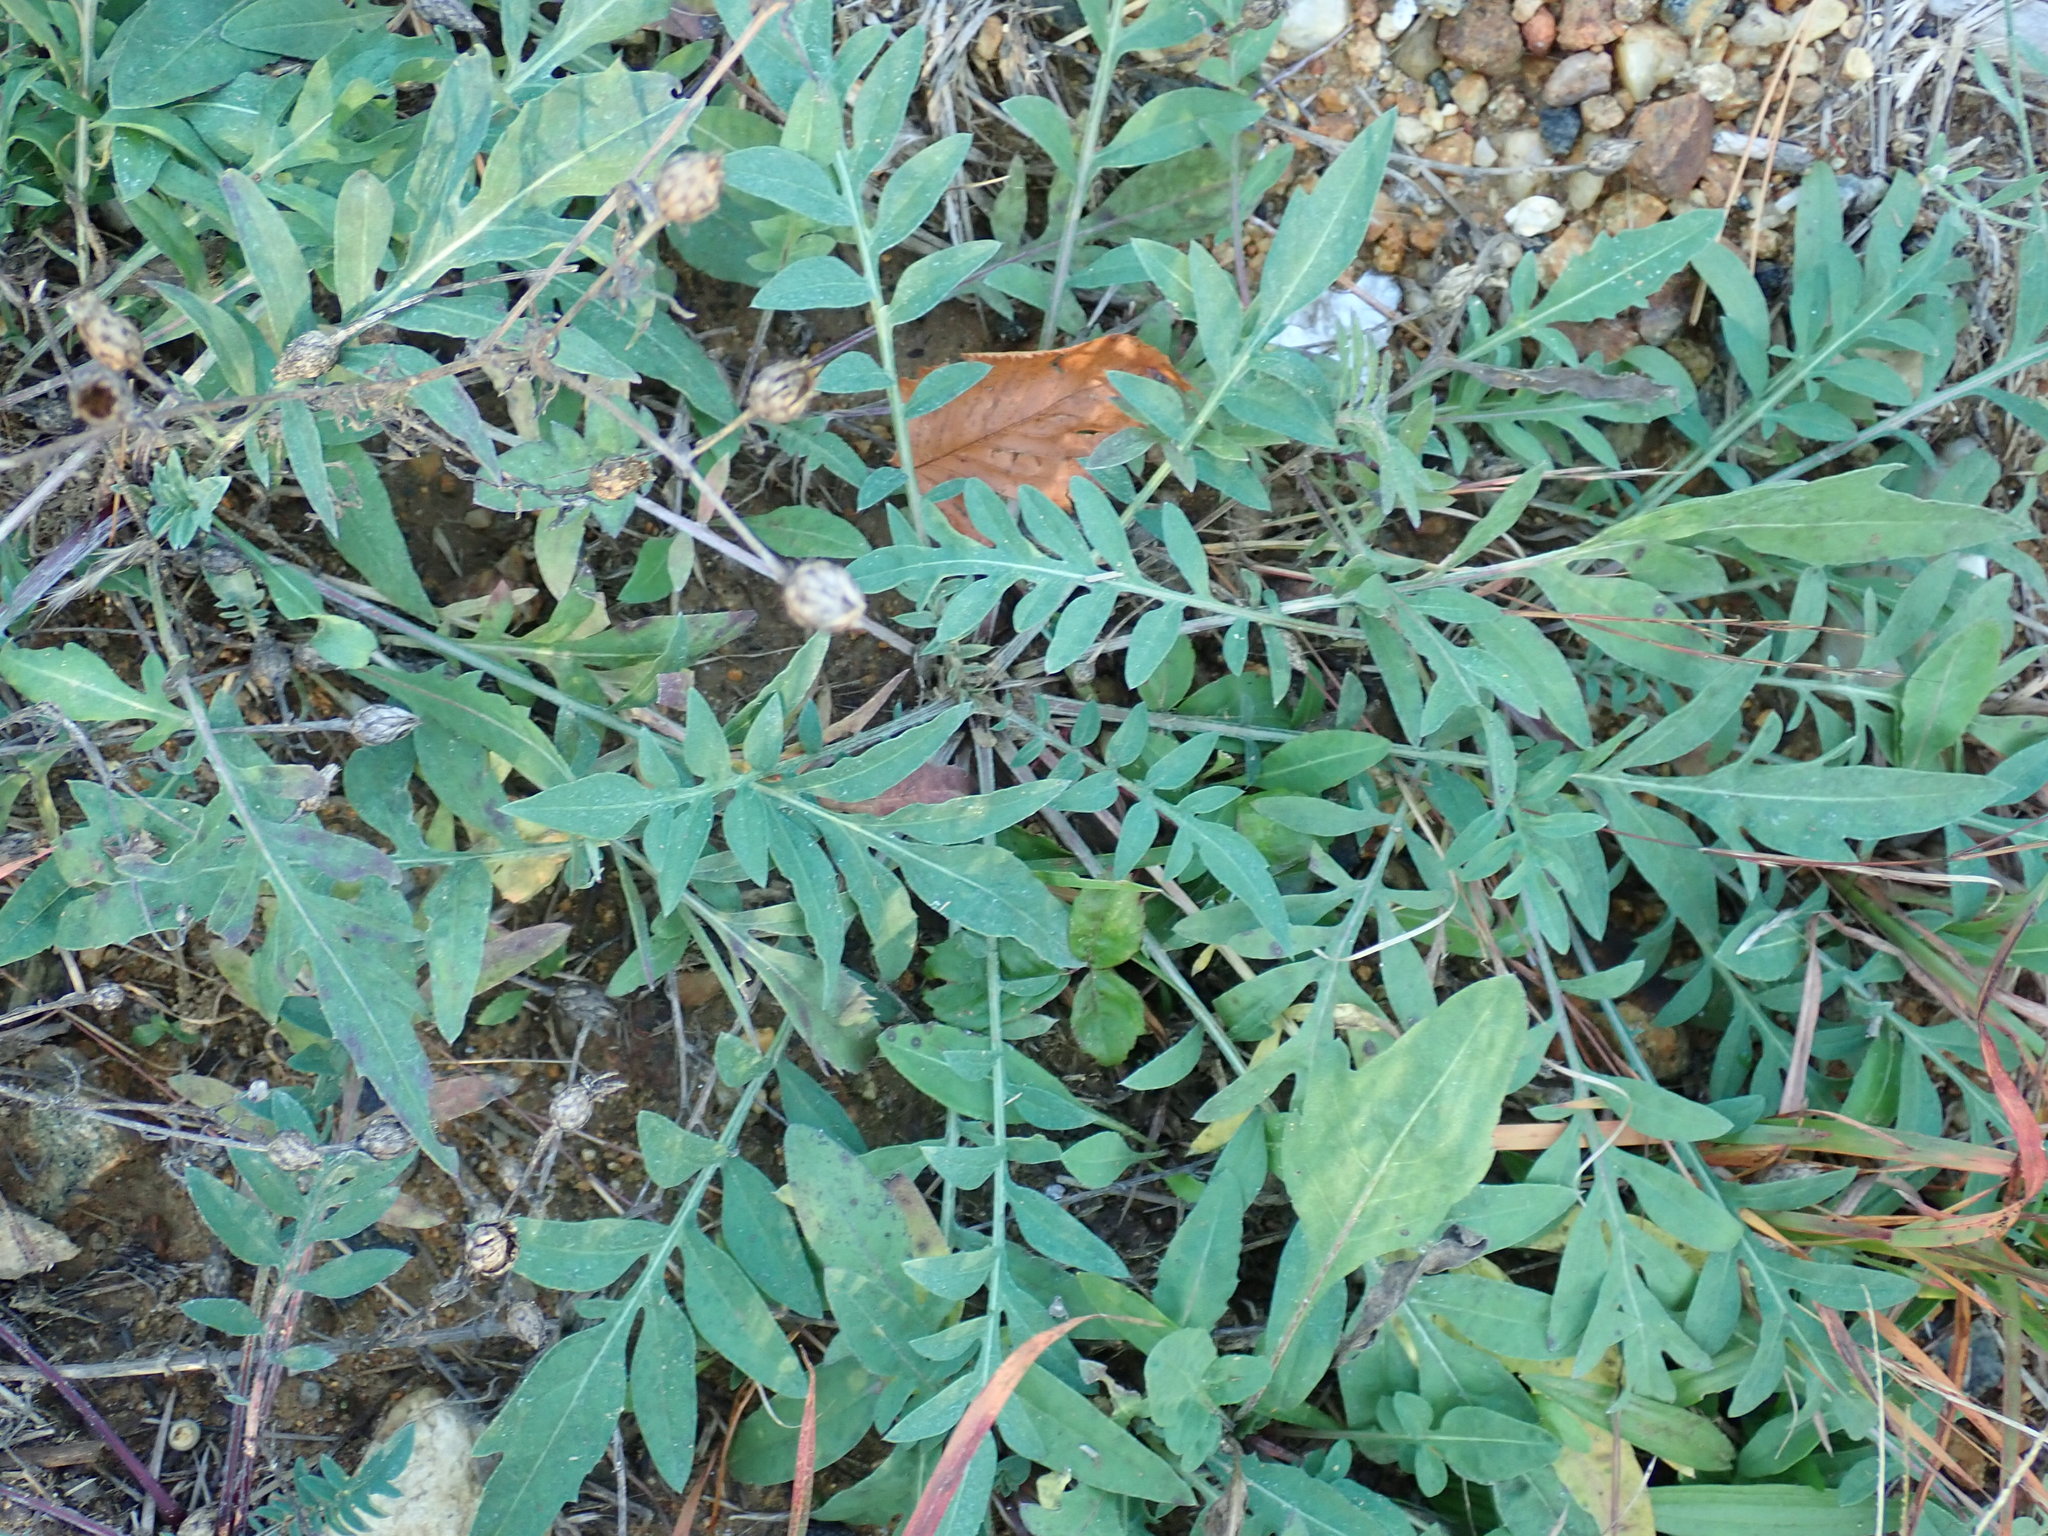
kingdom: Plantae
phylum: Tracheophyta
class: Magnoliopsida
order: Asterales
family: Asteraceae
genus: Centaurea
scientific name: Centaurea stoebe
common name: Spotted knapweed
